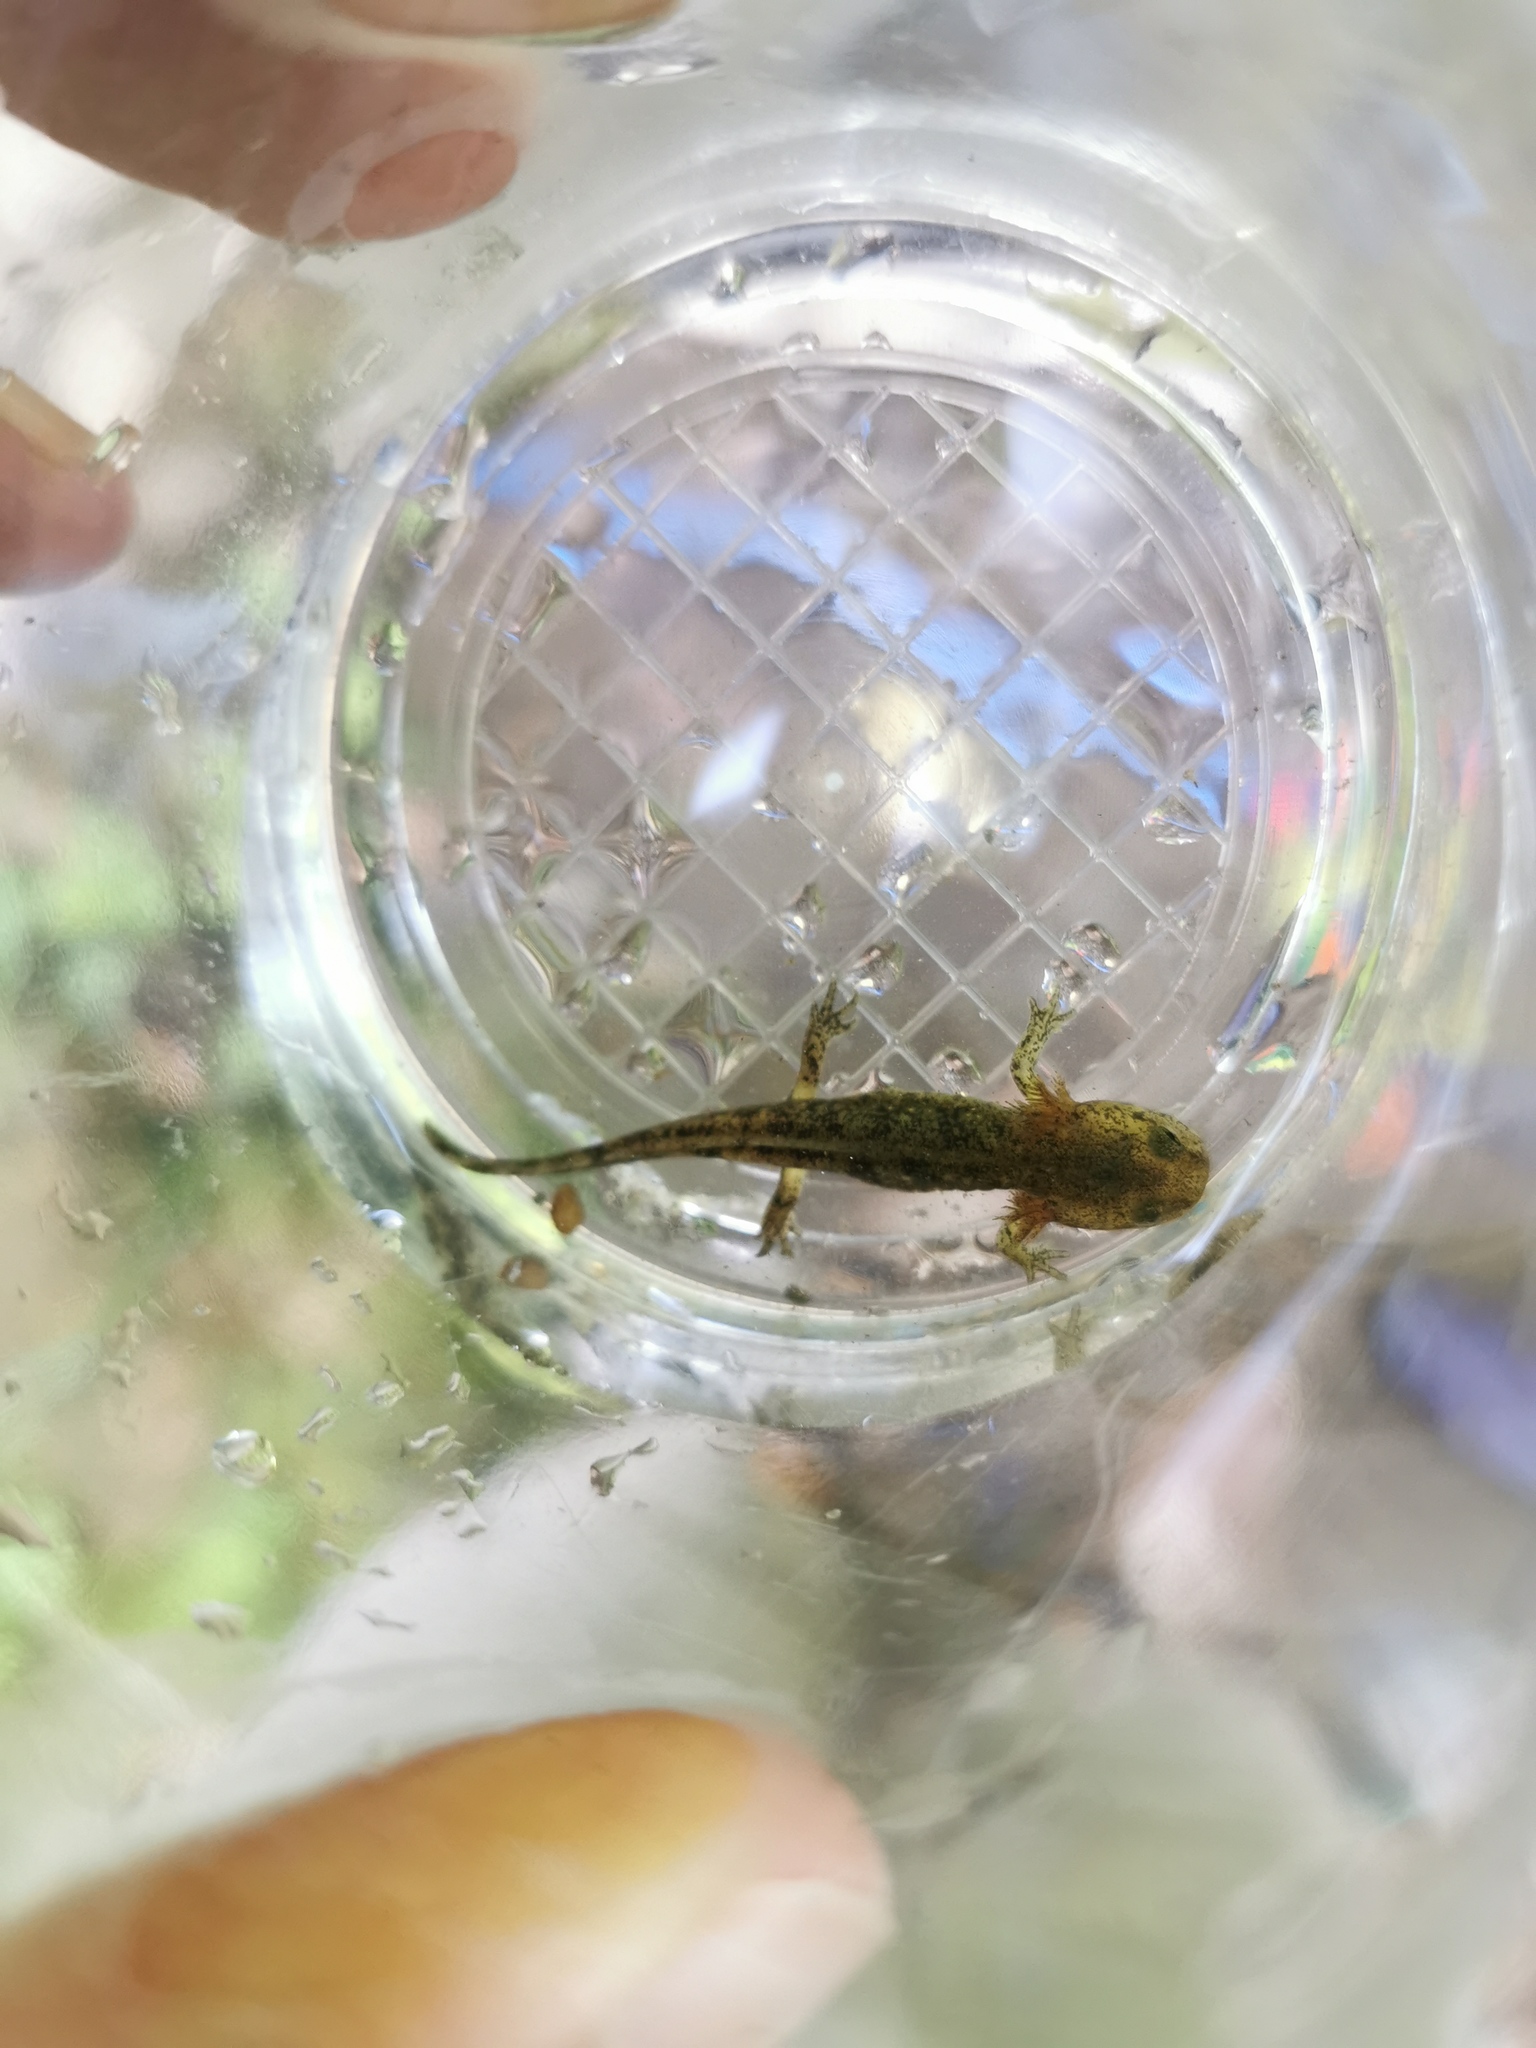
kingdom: Animalia
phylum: Chordata
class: Amphibia
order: Caudata
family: Salamandridae
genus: Salamandra
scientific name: Salamandra salamandra
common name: Fire salamander
